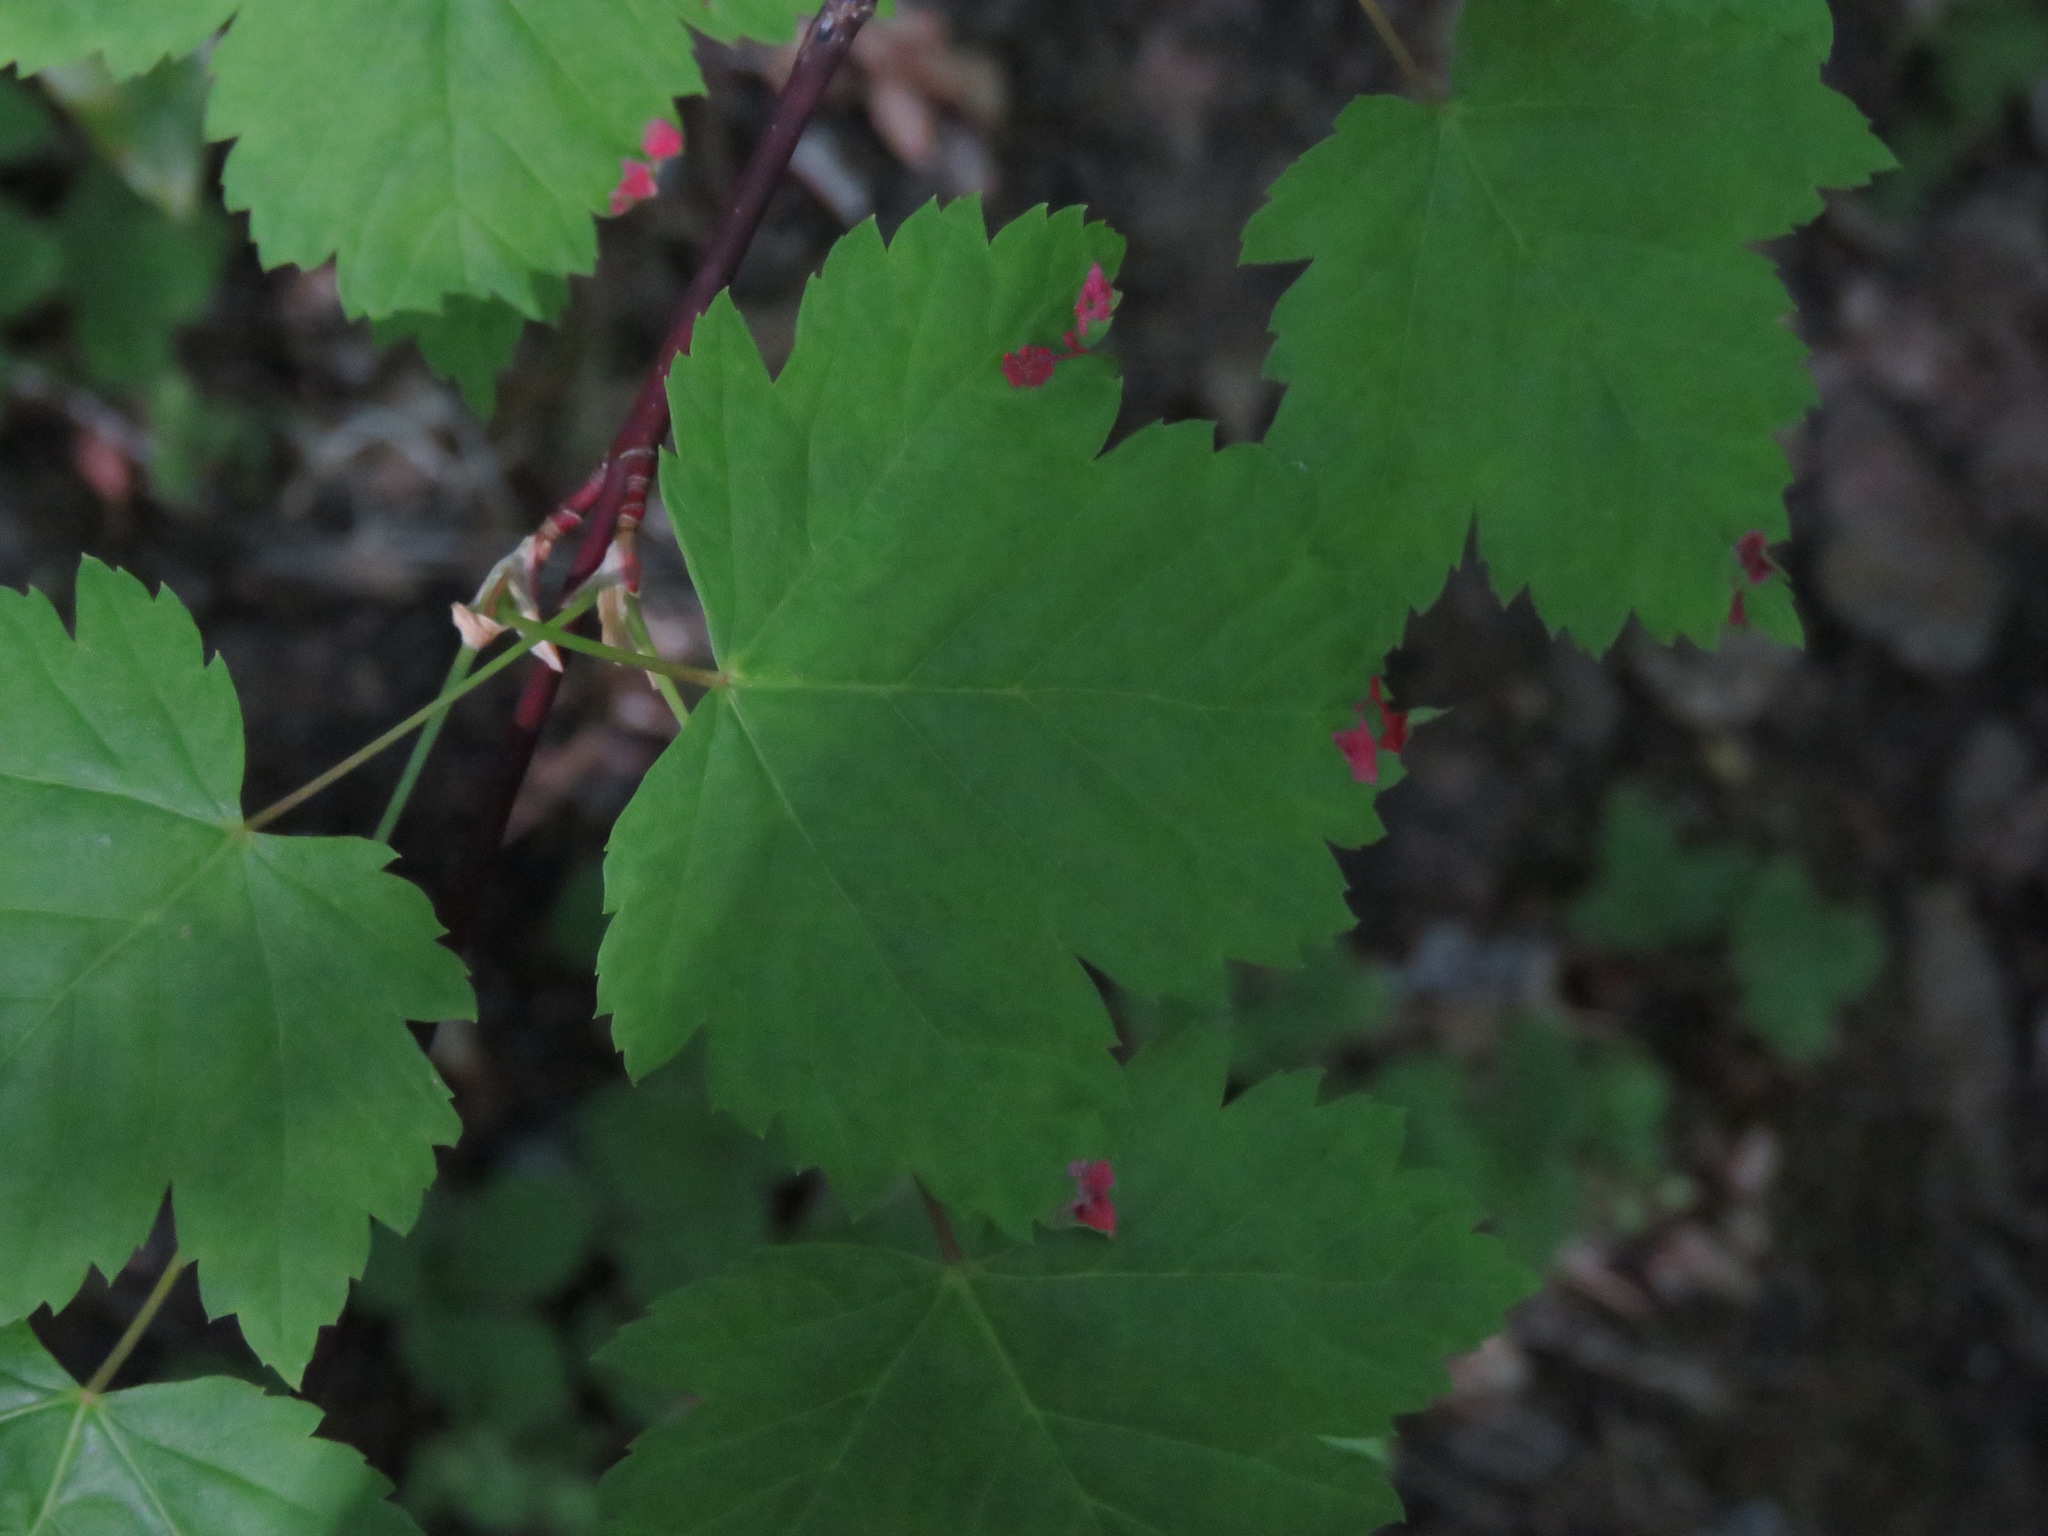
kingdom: Plantae
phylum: Tracheophyta
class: Magnoliopsida
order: Sapindales
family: Sapindaceae
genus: Acer
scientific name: Acer glabrum
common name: Rocky mountain maple
